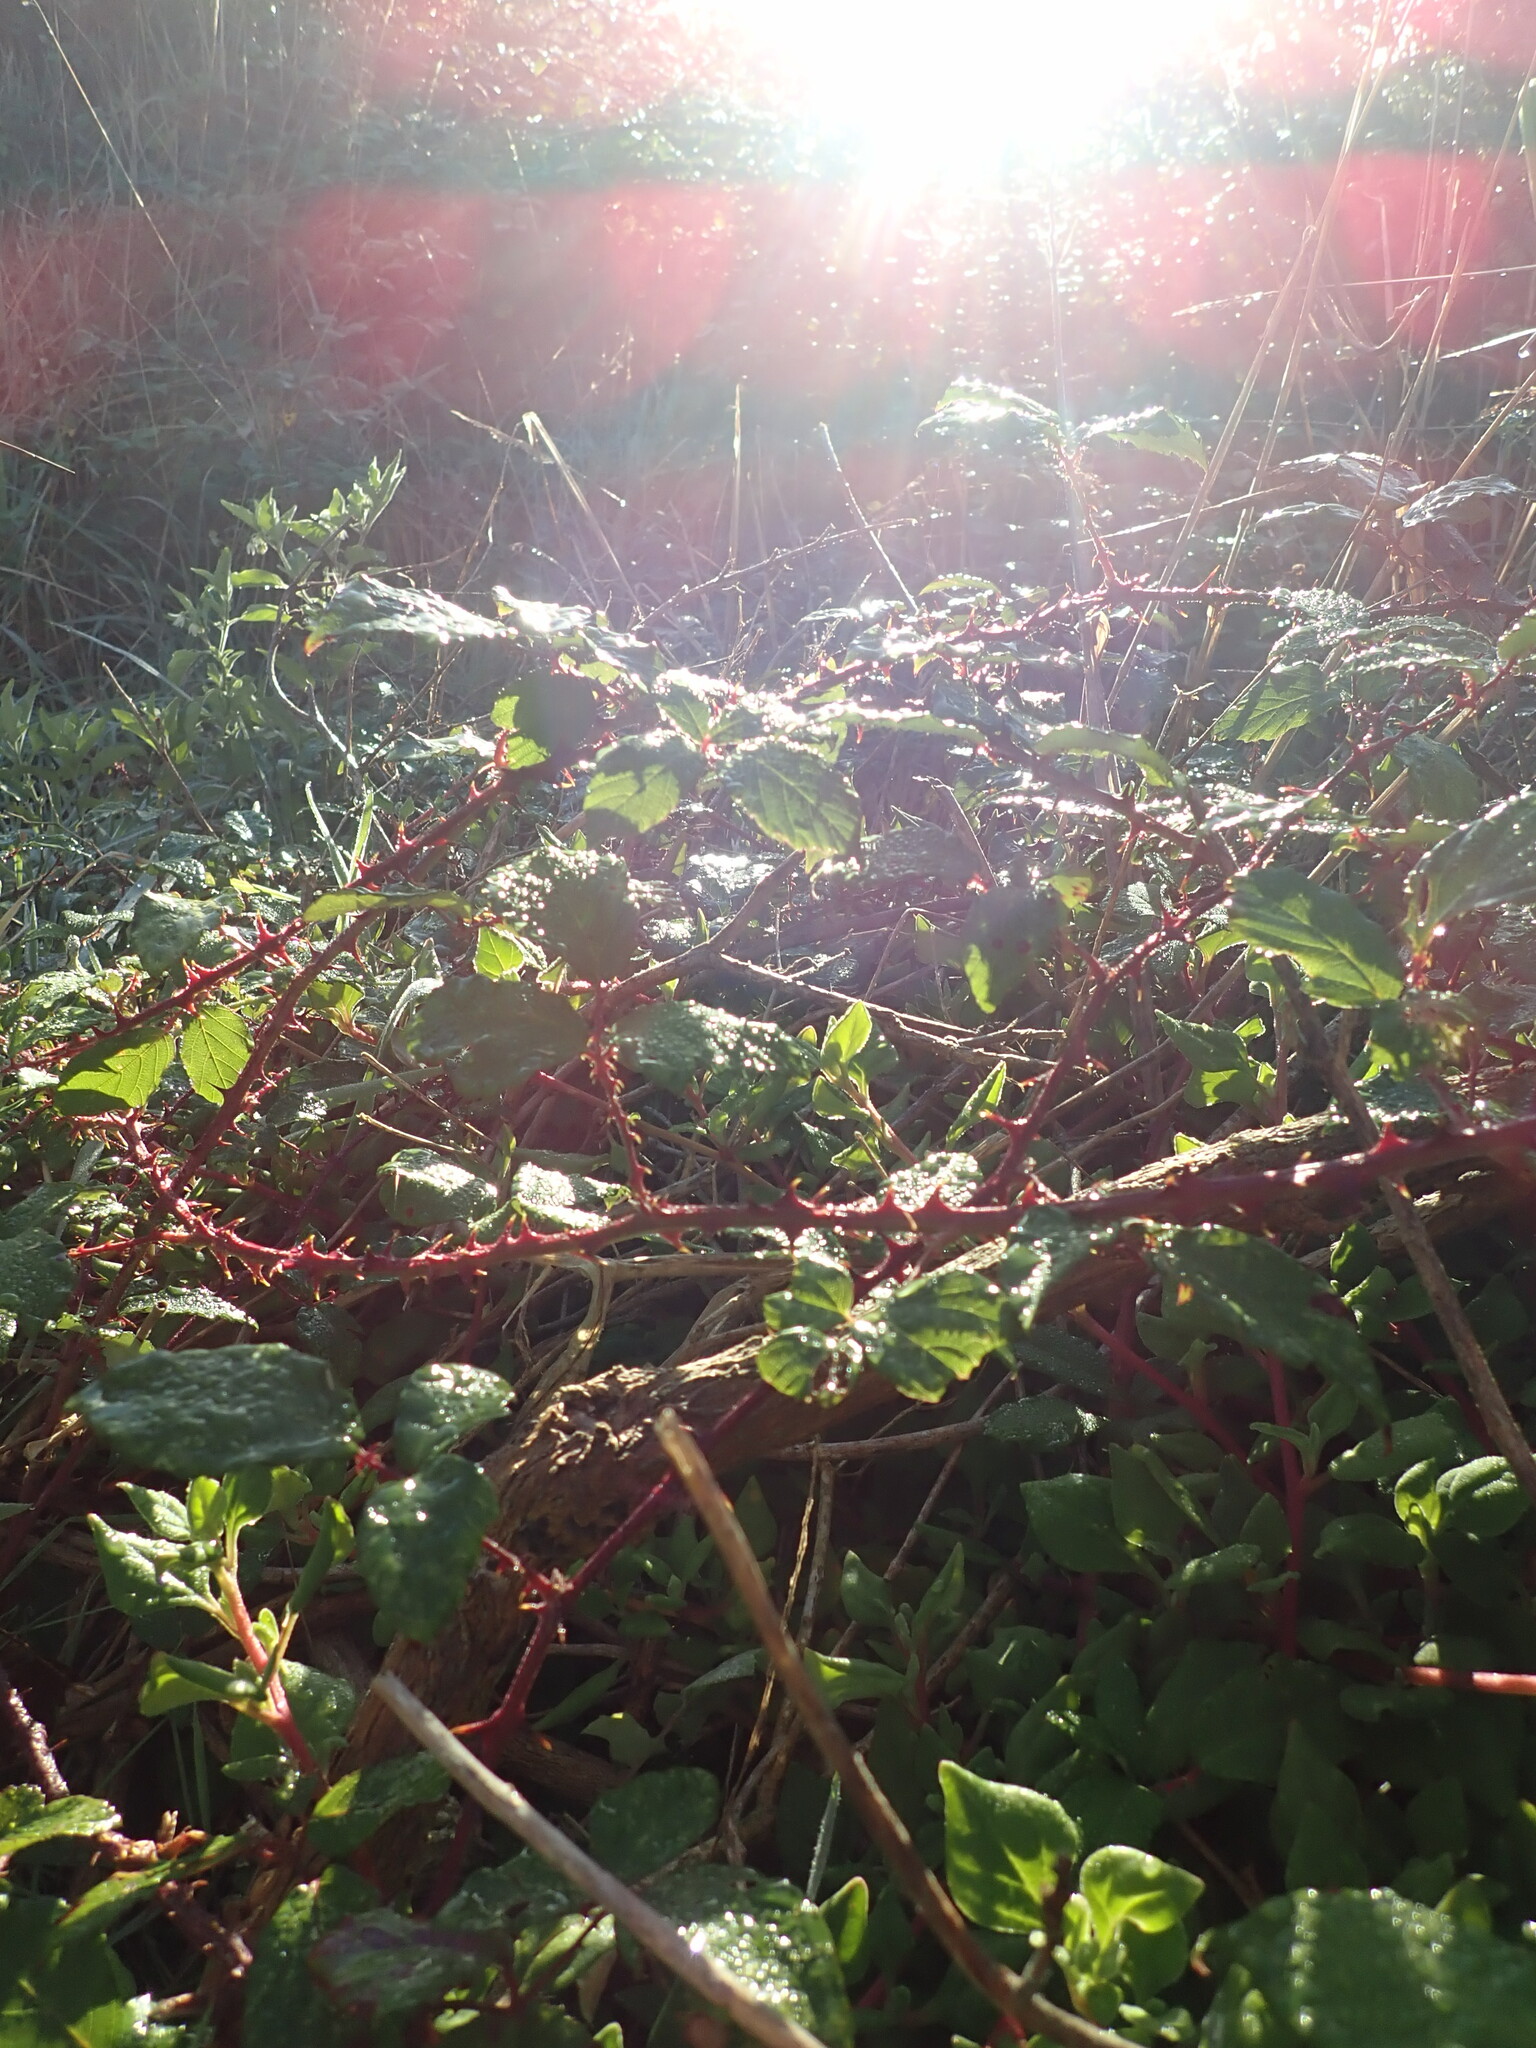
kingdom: Plantae
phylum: Tracheophyta
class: Magnoliopsida
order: Rosales
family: Rosaceae
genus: Rubus
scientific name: Rubus fruticosus
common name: Blackberry, bramble
